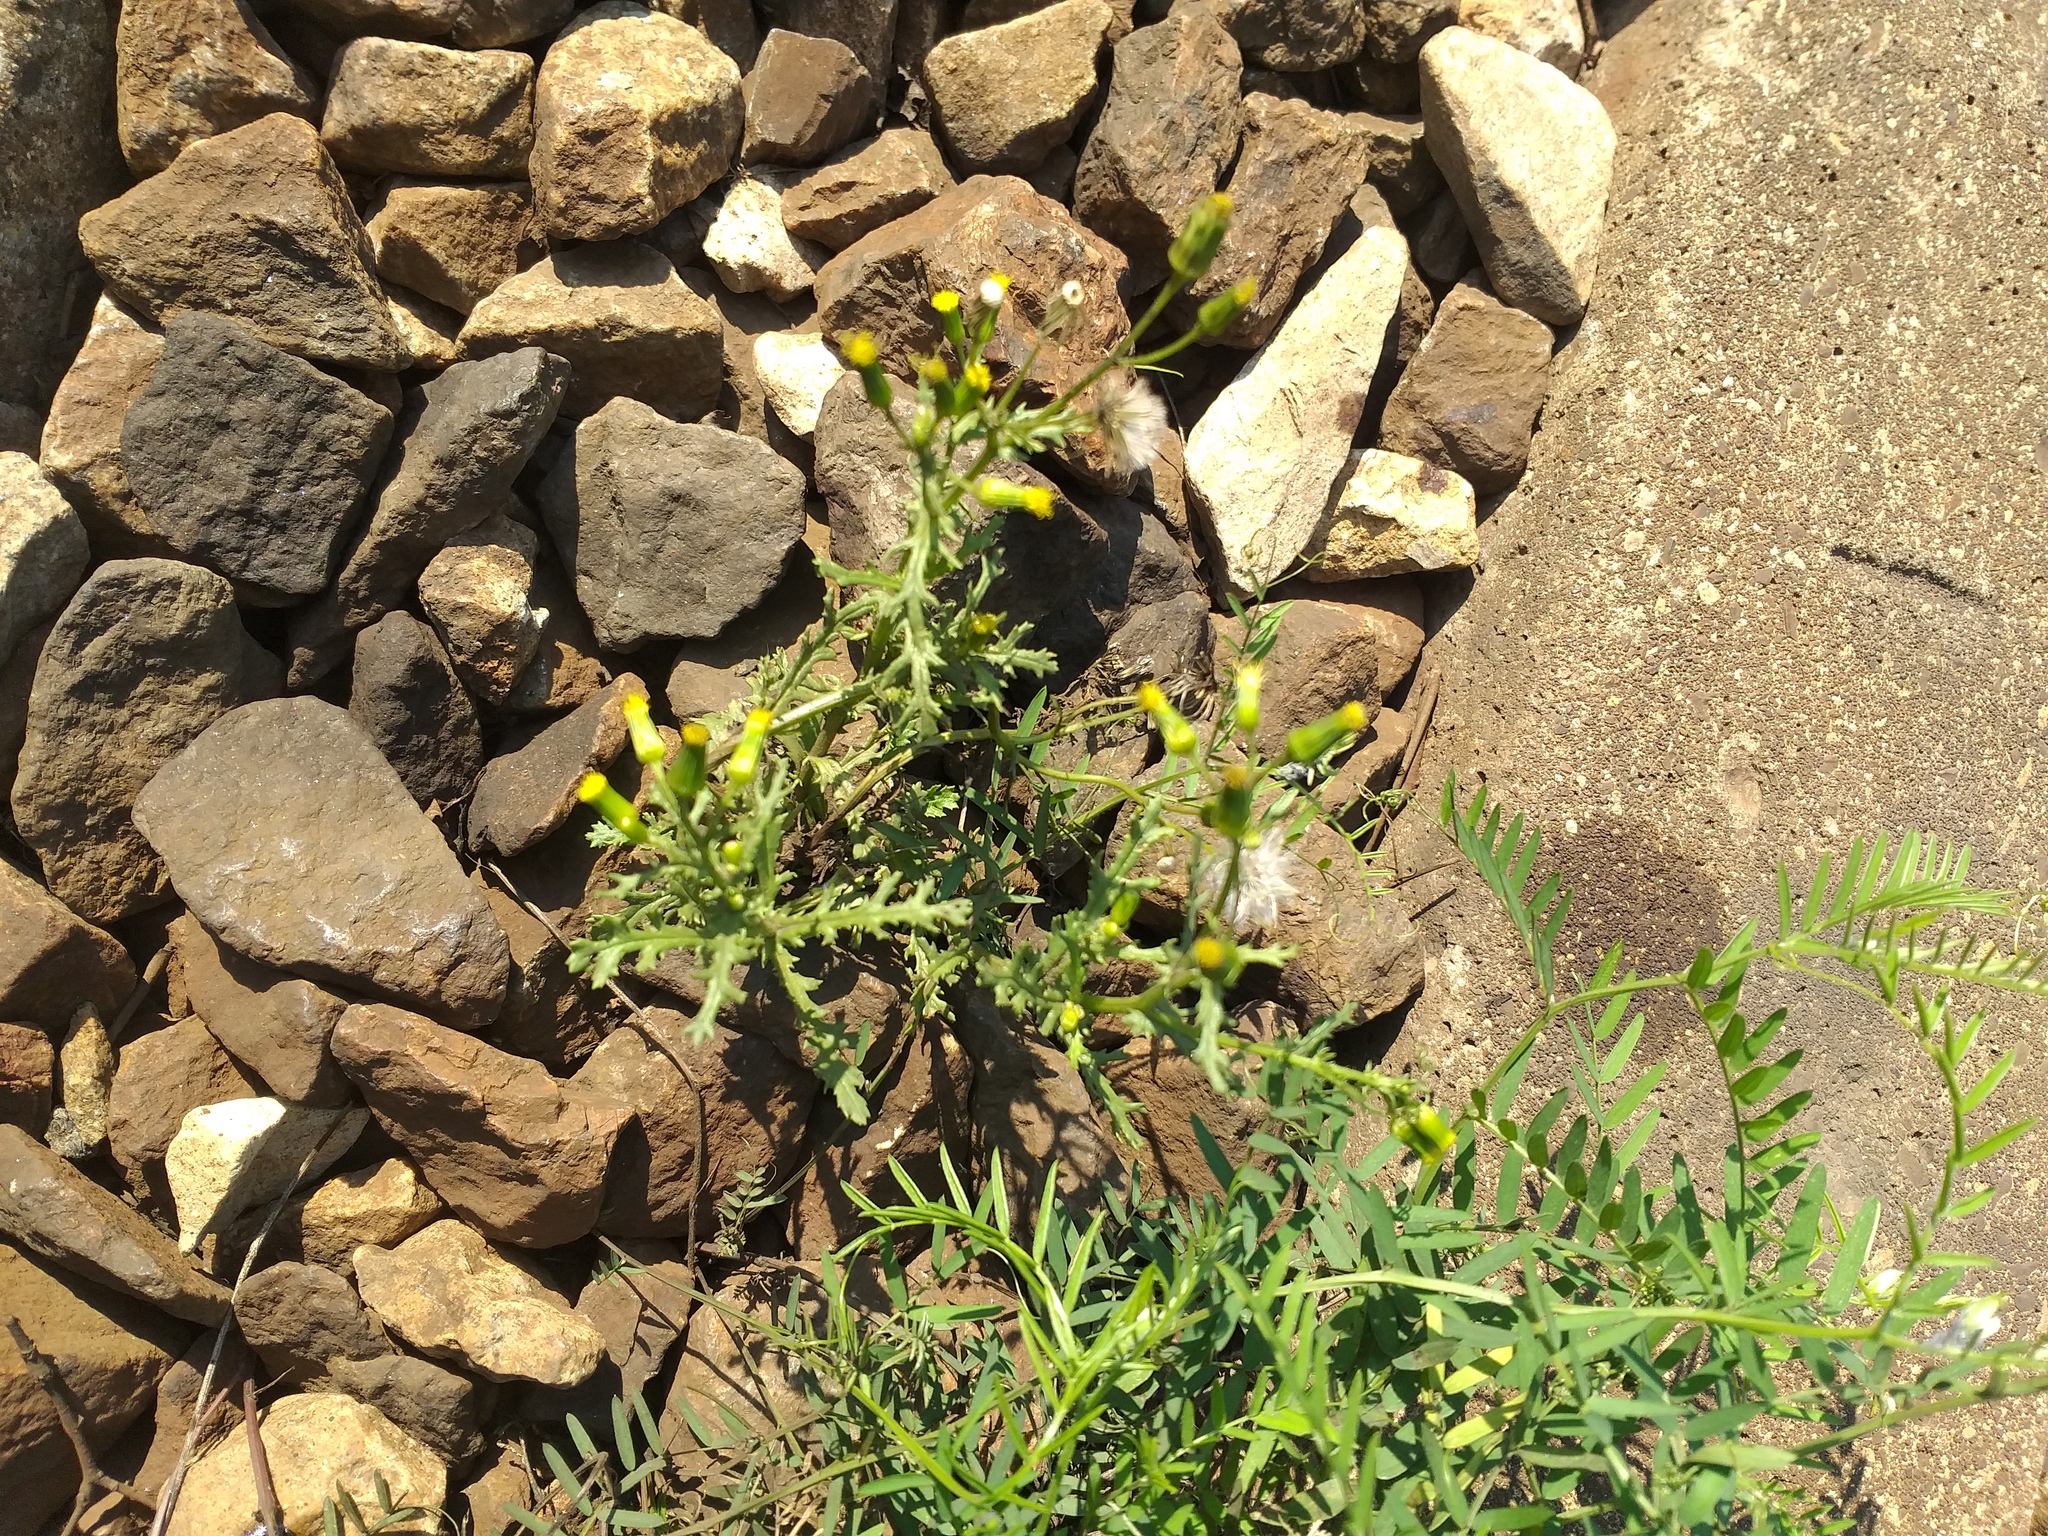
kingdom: Plantae
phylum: Tracheophyta
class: Magnoliopsida
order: Asterales
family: Asteraceae
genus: Senecio
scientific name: Senecio vulgaris
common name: Old-man-in-the-spring
